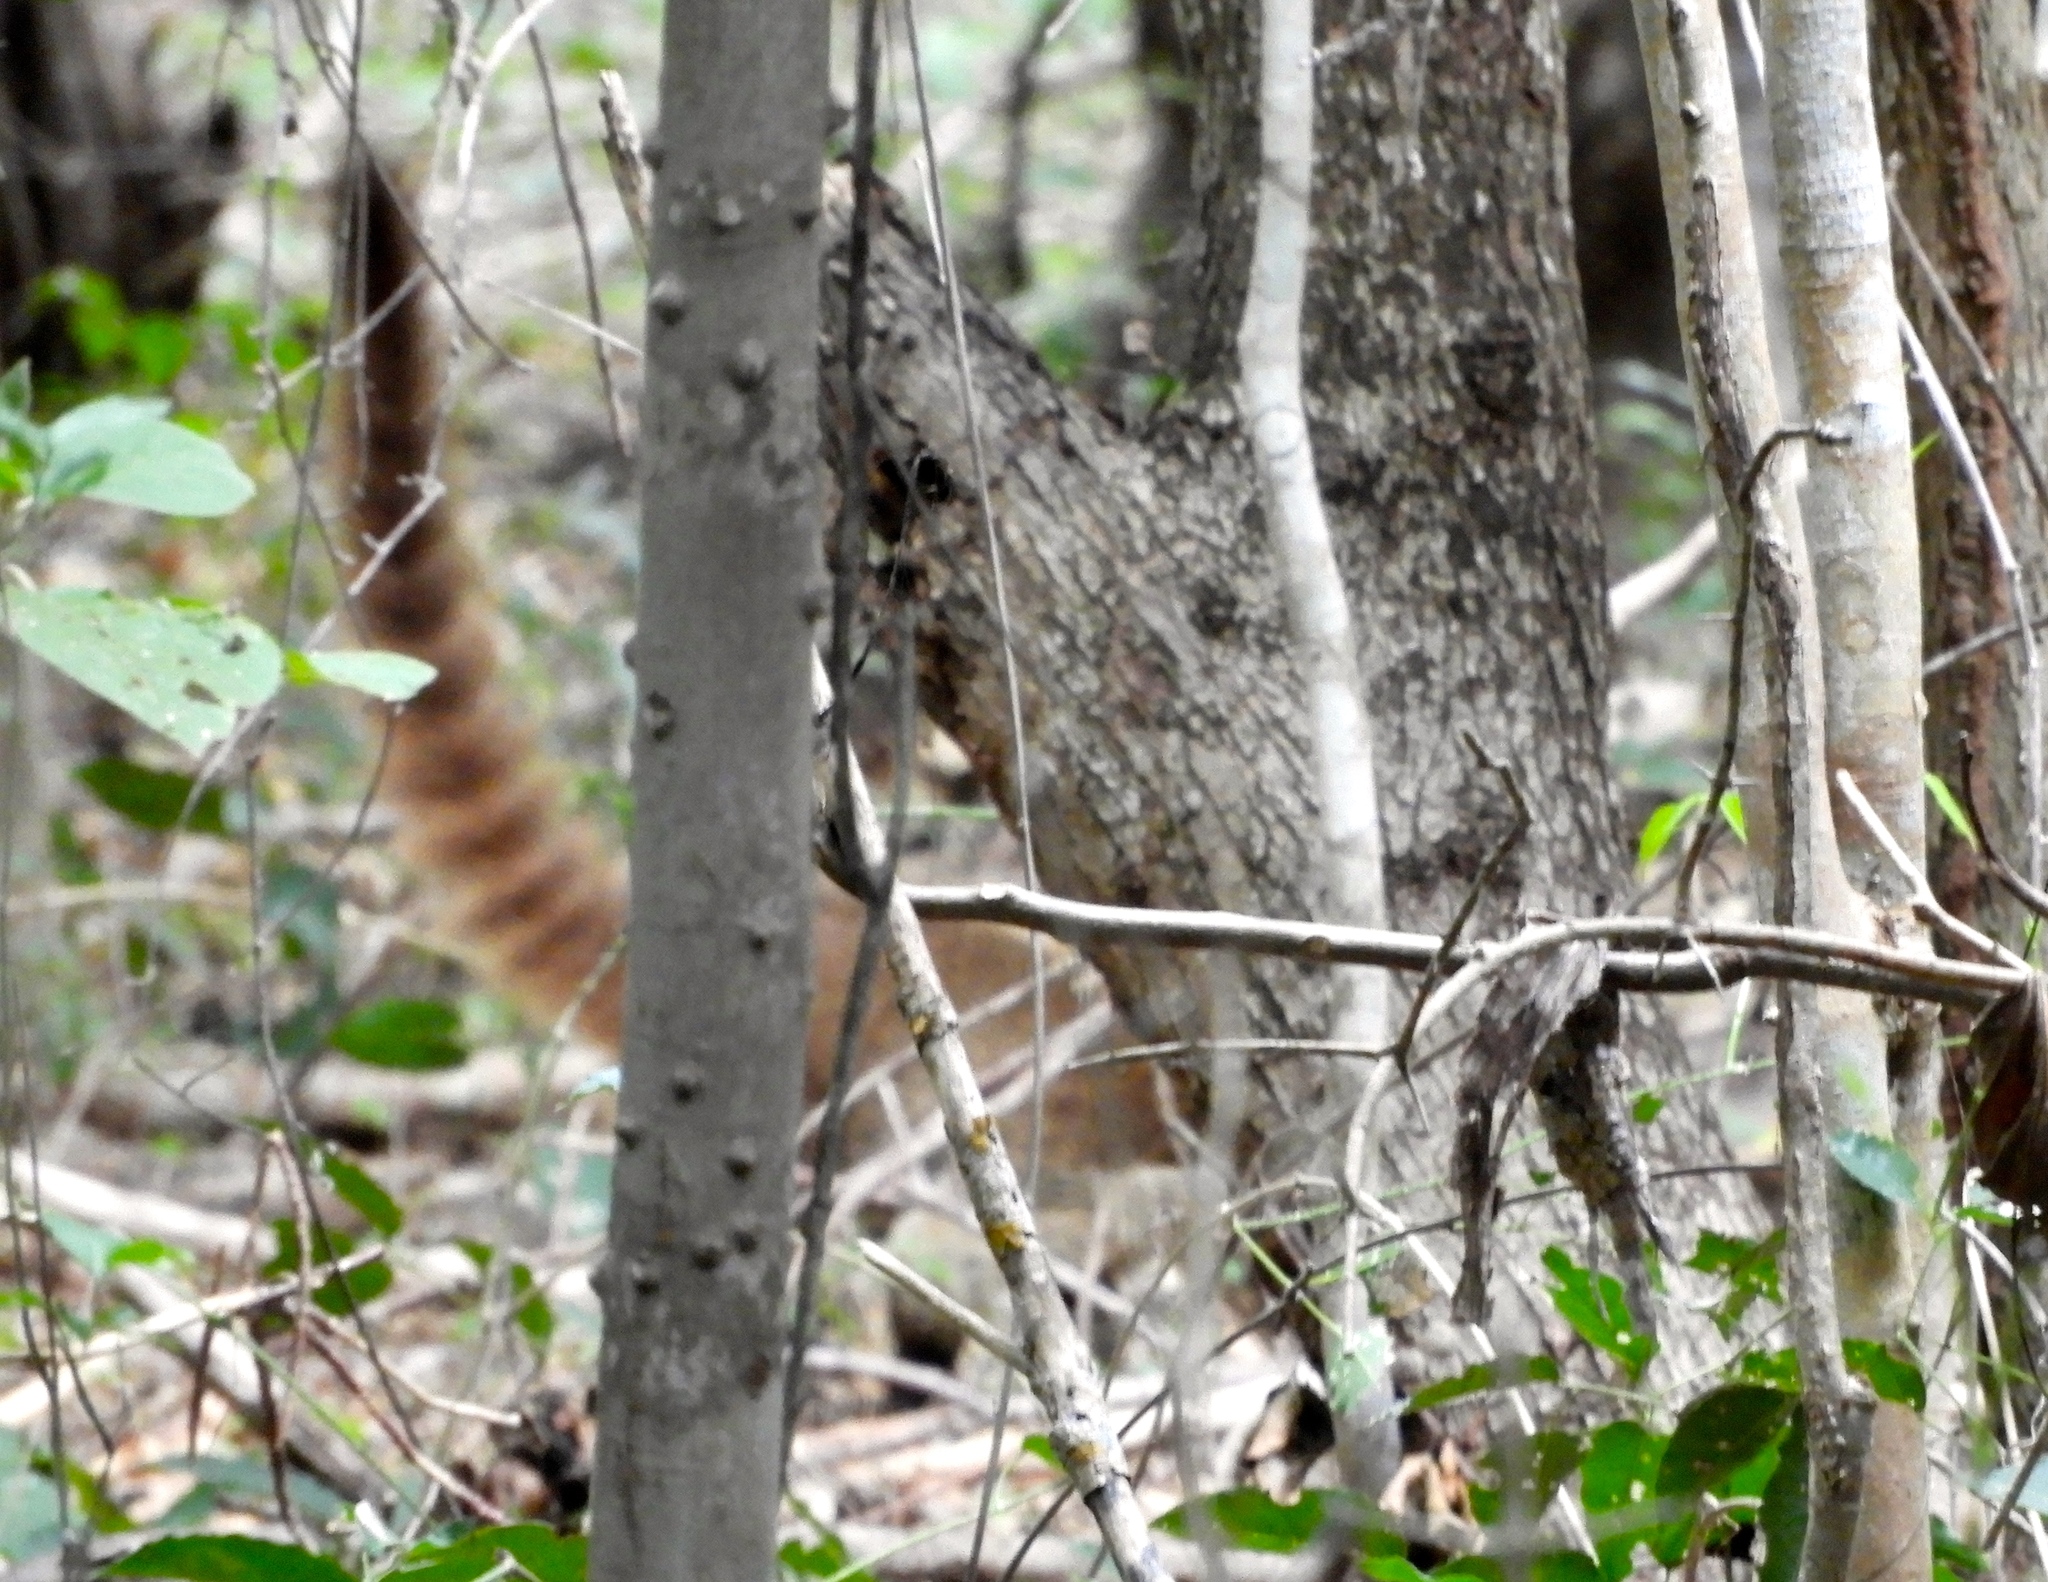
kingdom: Animalia
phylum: Chordata
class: Mammalia
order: Carnivora
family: Procyonidae
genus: Nasua
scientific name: Nasua narica
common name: White-nosed coati
